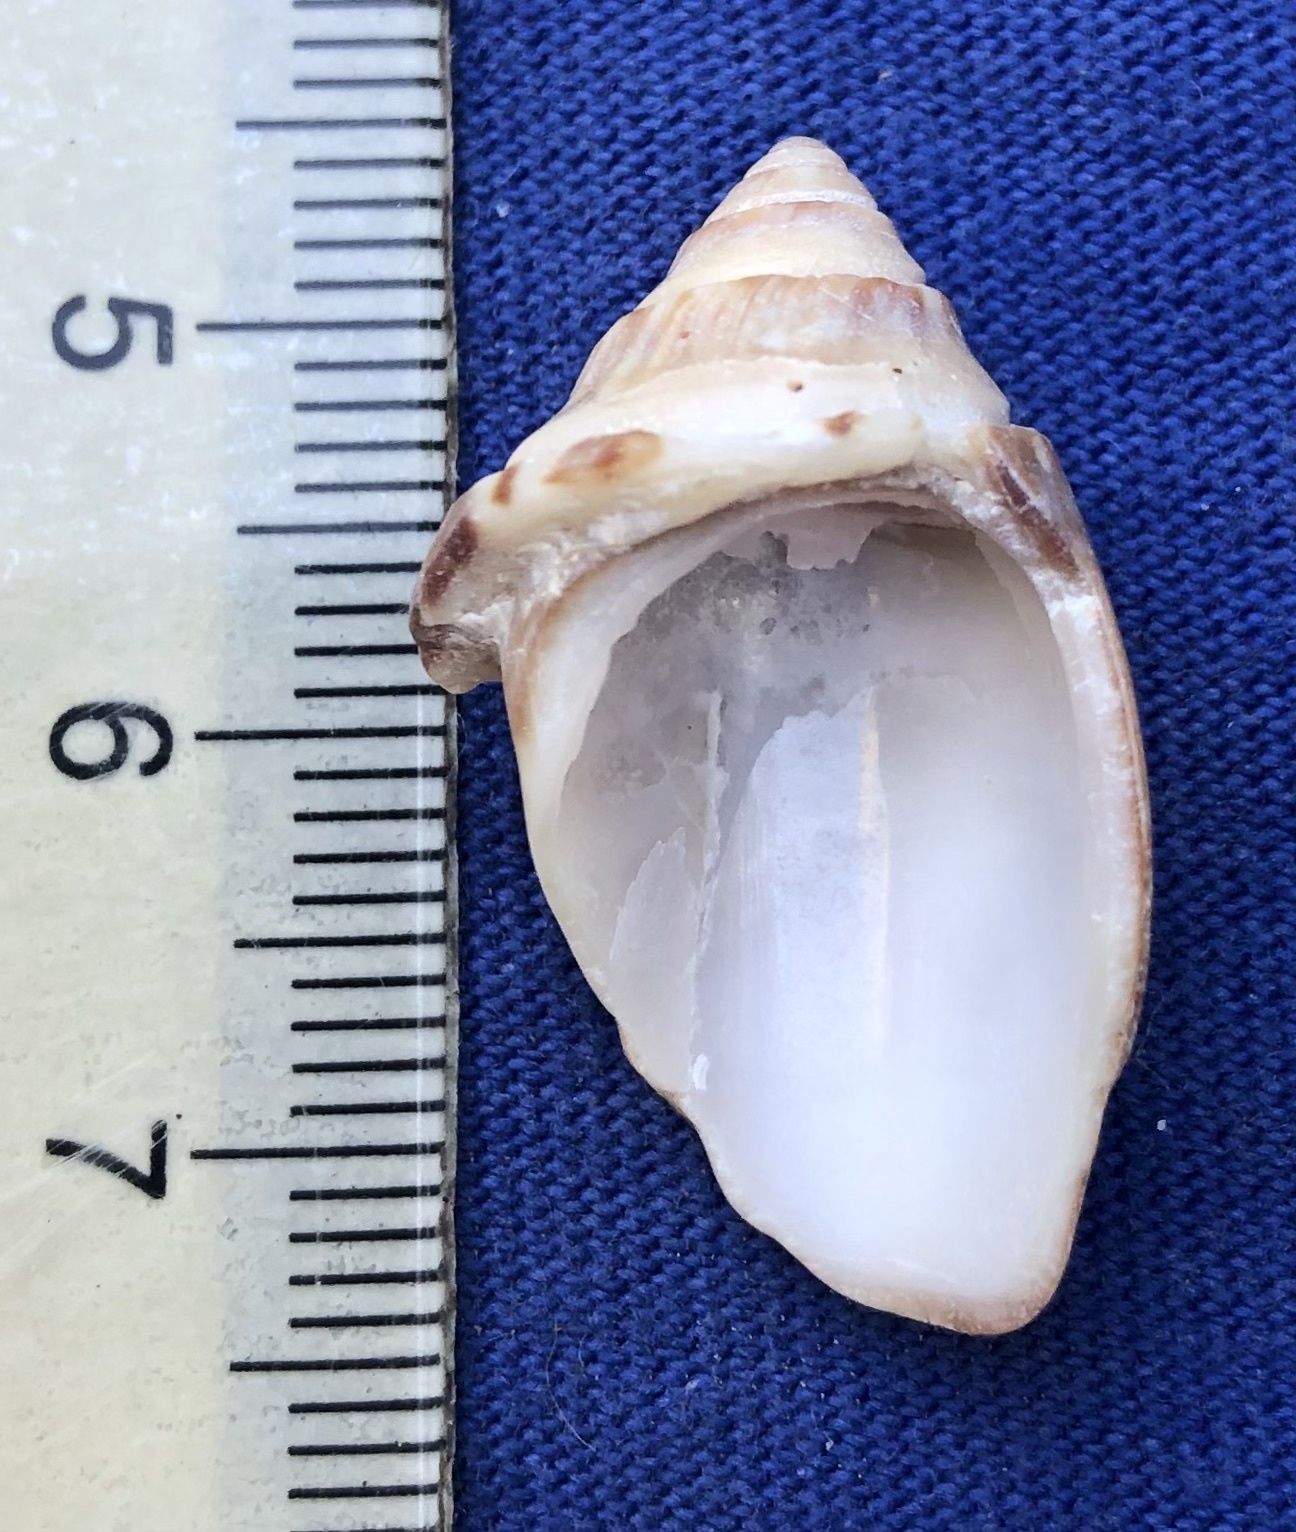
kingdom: Animalia
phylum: Mollusca
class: Gastropoda
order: Neogastropoda
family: Olividae
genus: Oliva
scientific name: Oliva sayana
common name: Lettered olive
